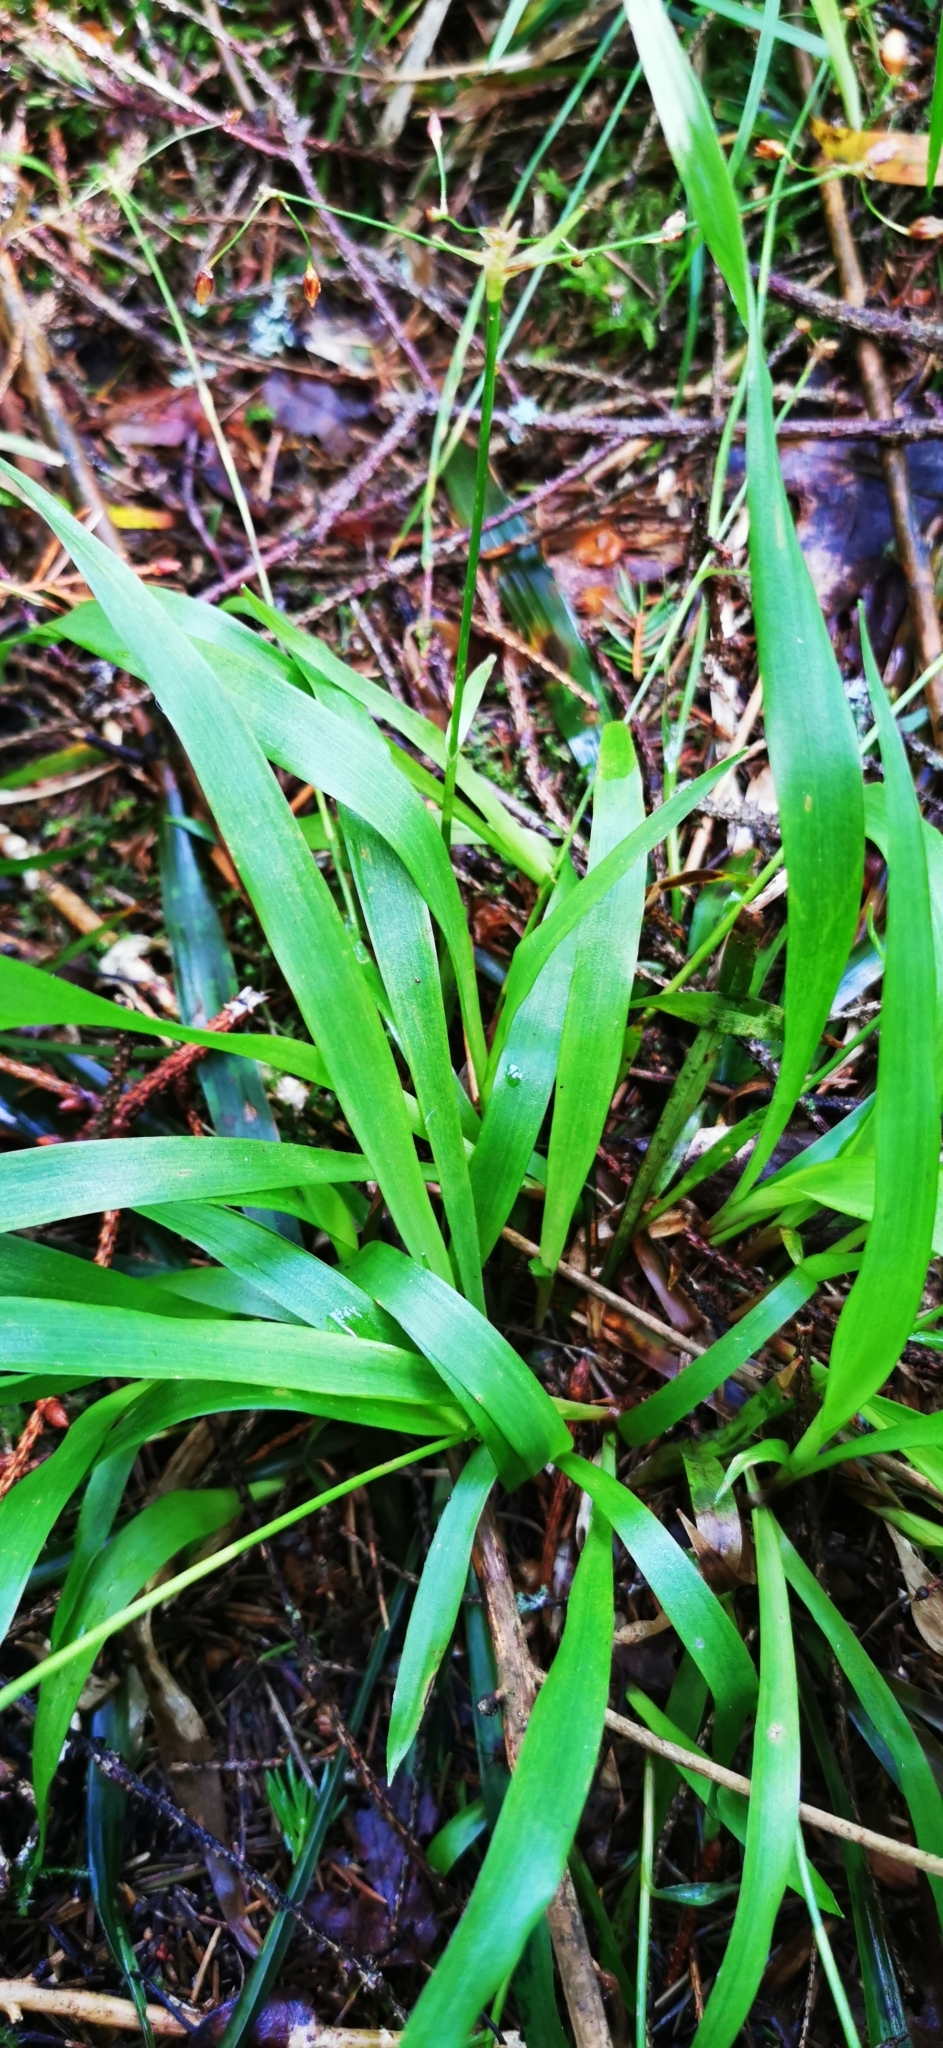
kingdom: Plantae
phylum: Tracheophyta
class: Liliopsida
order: Poales
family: Juncaceae
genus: Luzula
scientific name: Luzula pilosa
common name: Hairy wood-rush
